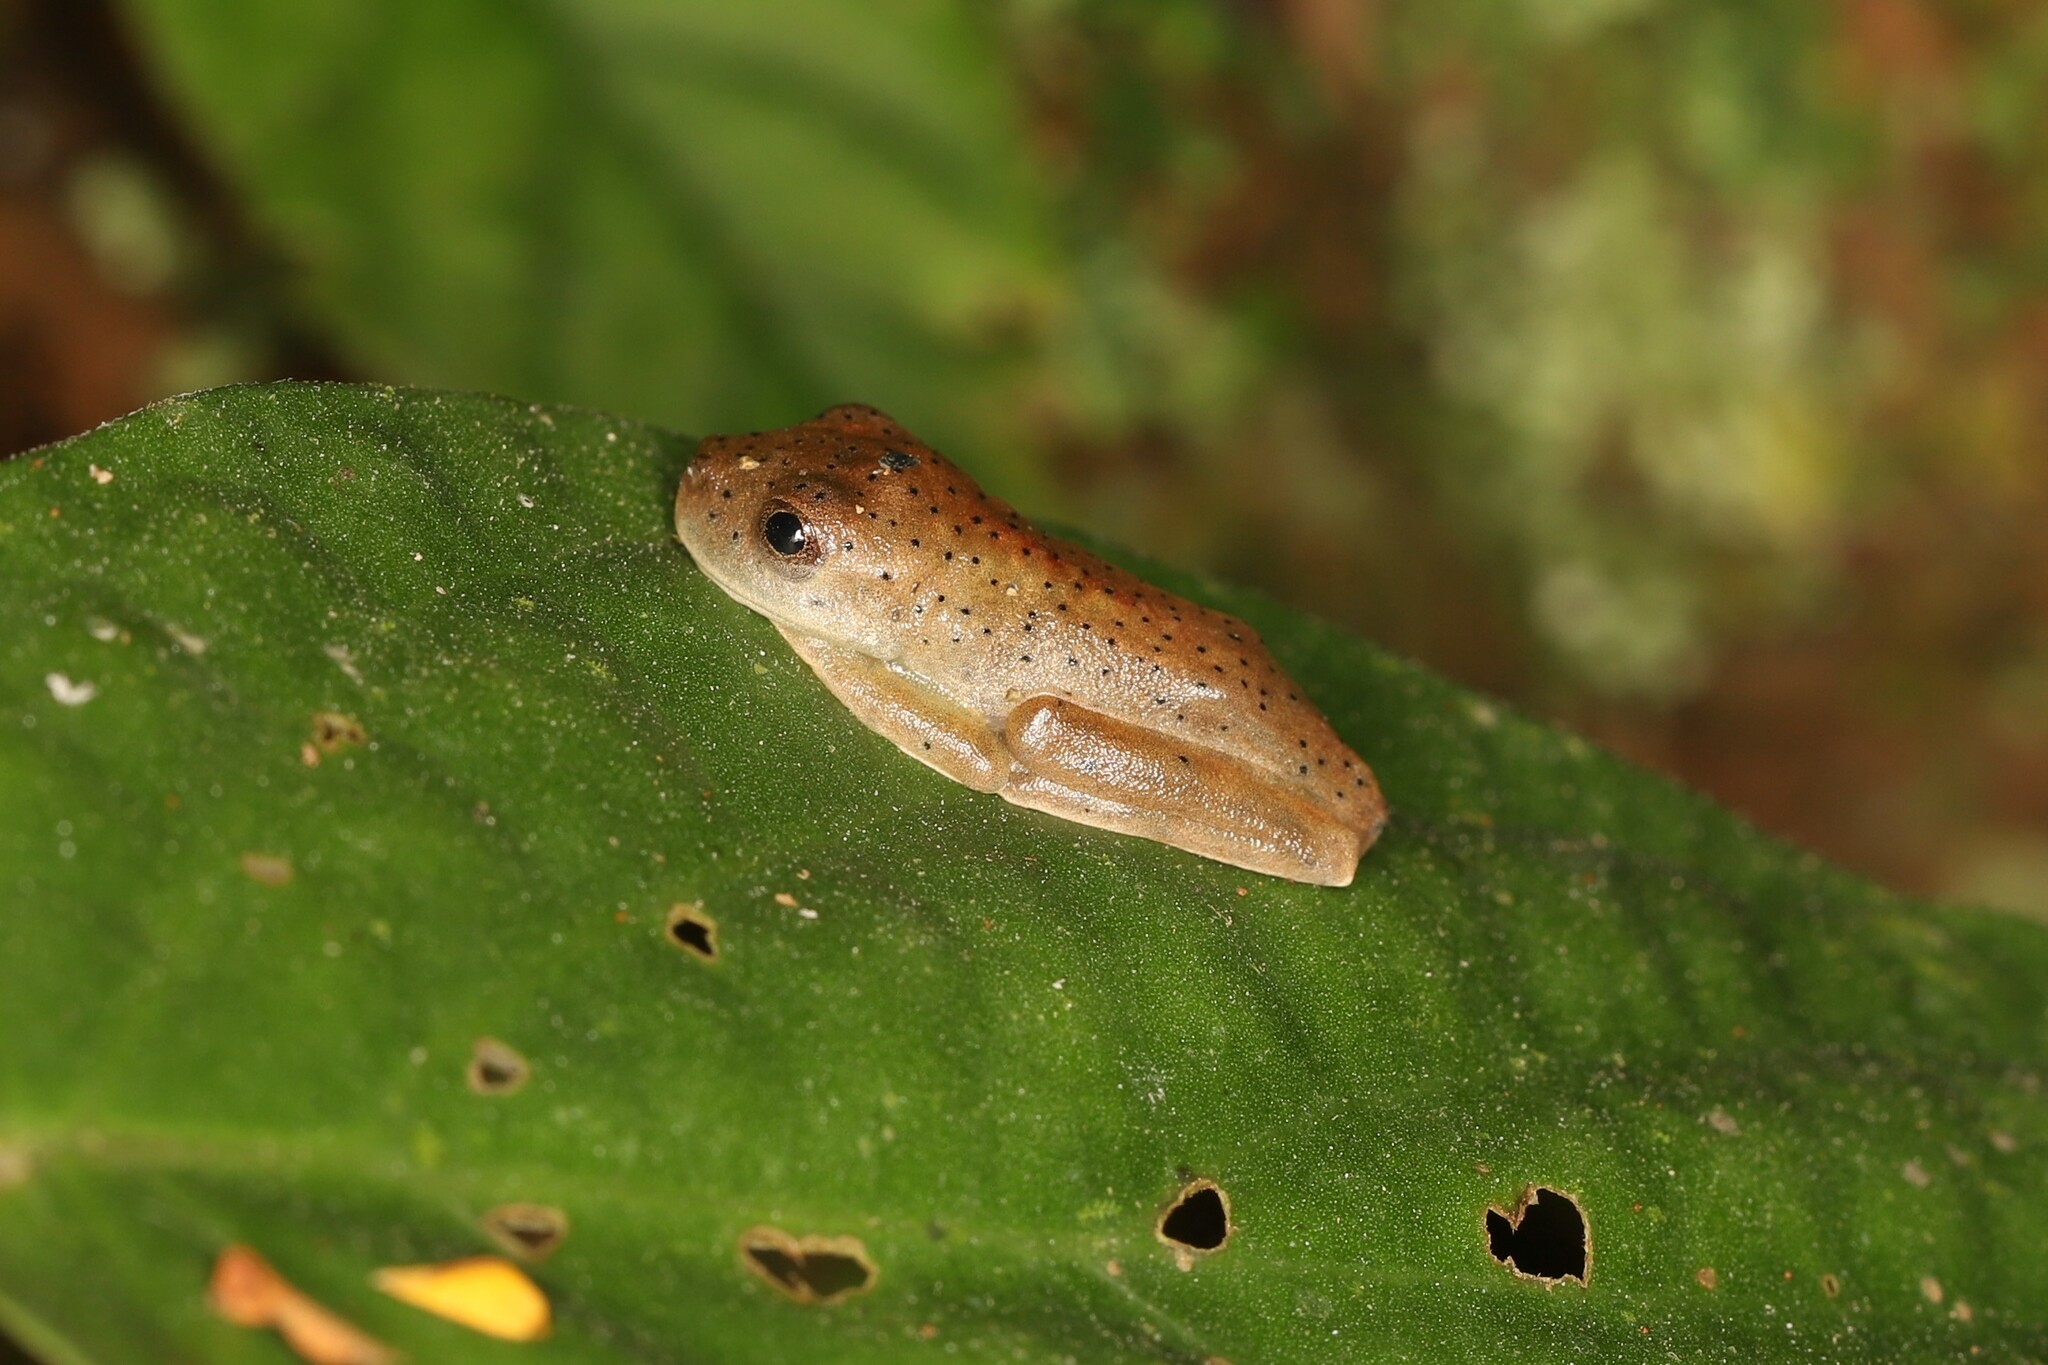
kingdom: Animalia
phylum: Chordata
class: Amphibia
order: Anura
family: Hylidae
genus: Boana
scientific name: Boana boans
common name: Giant gladiator treefrog
